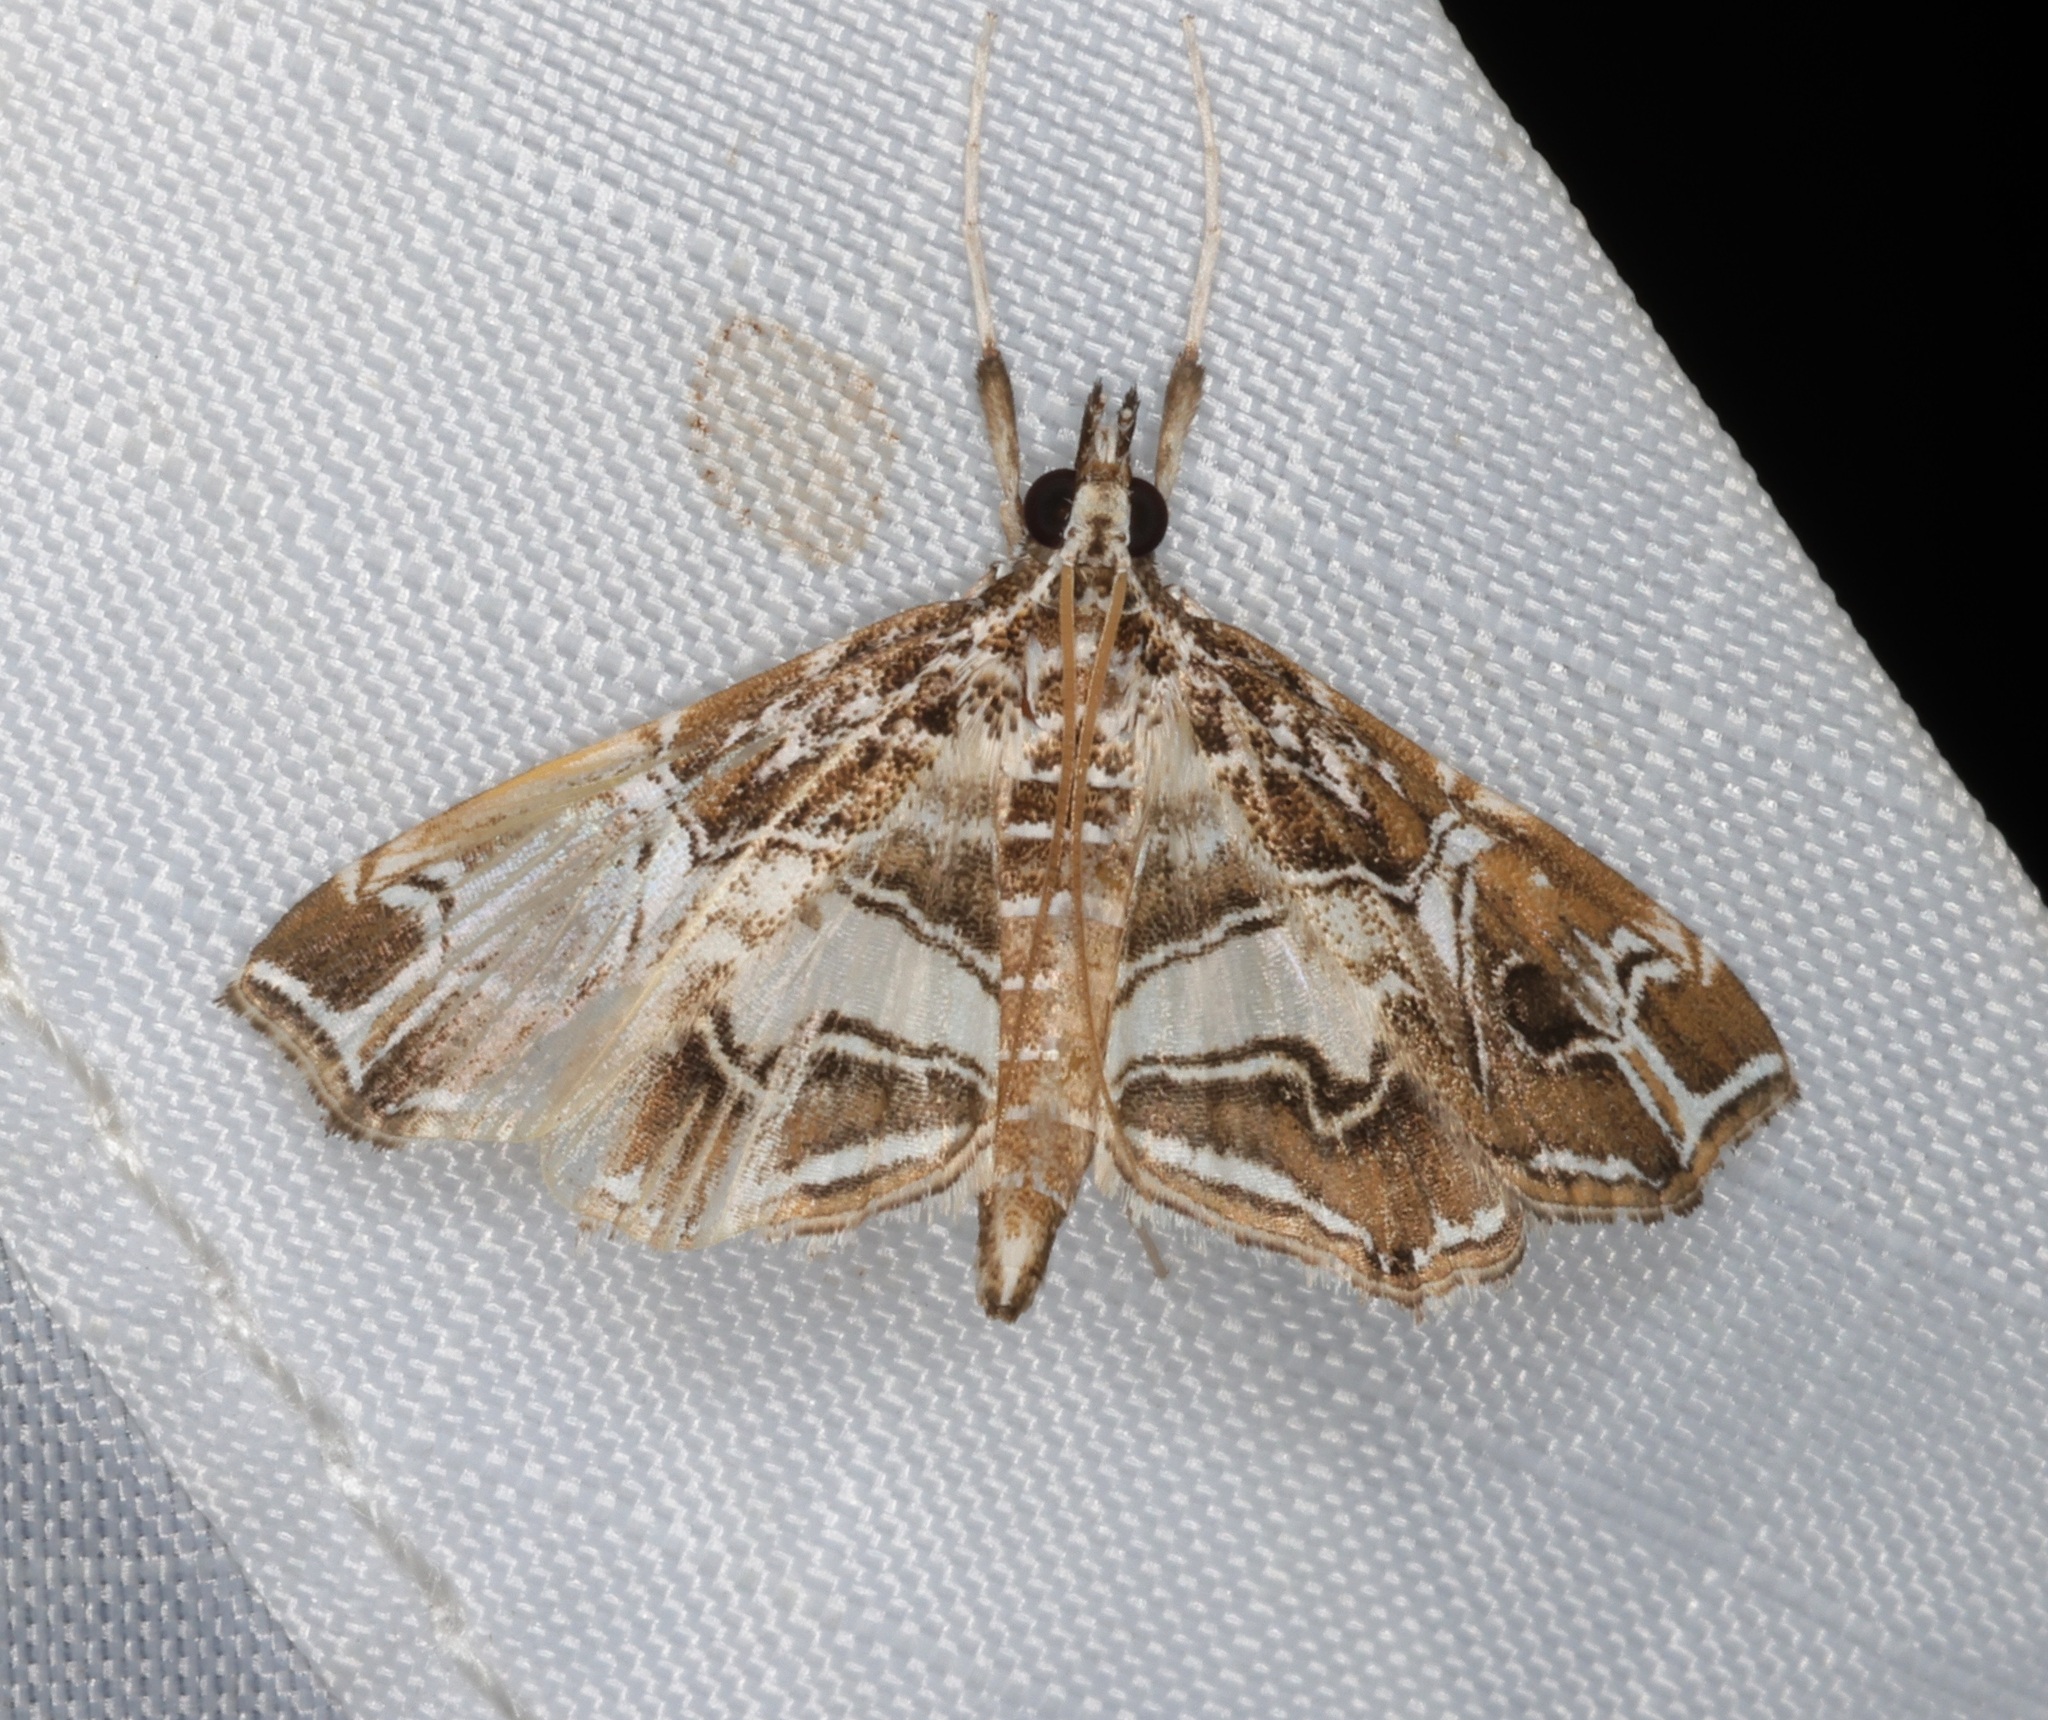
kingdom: Animalia
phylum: Arthropoda
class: Insecta
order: Lepidoptera
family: Crambidae
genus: Paracymoriza
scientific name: Paracymoriza vagalis
